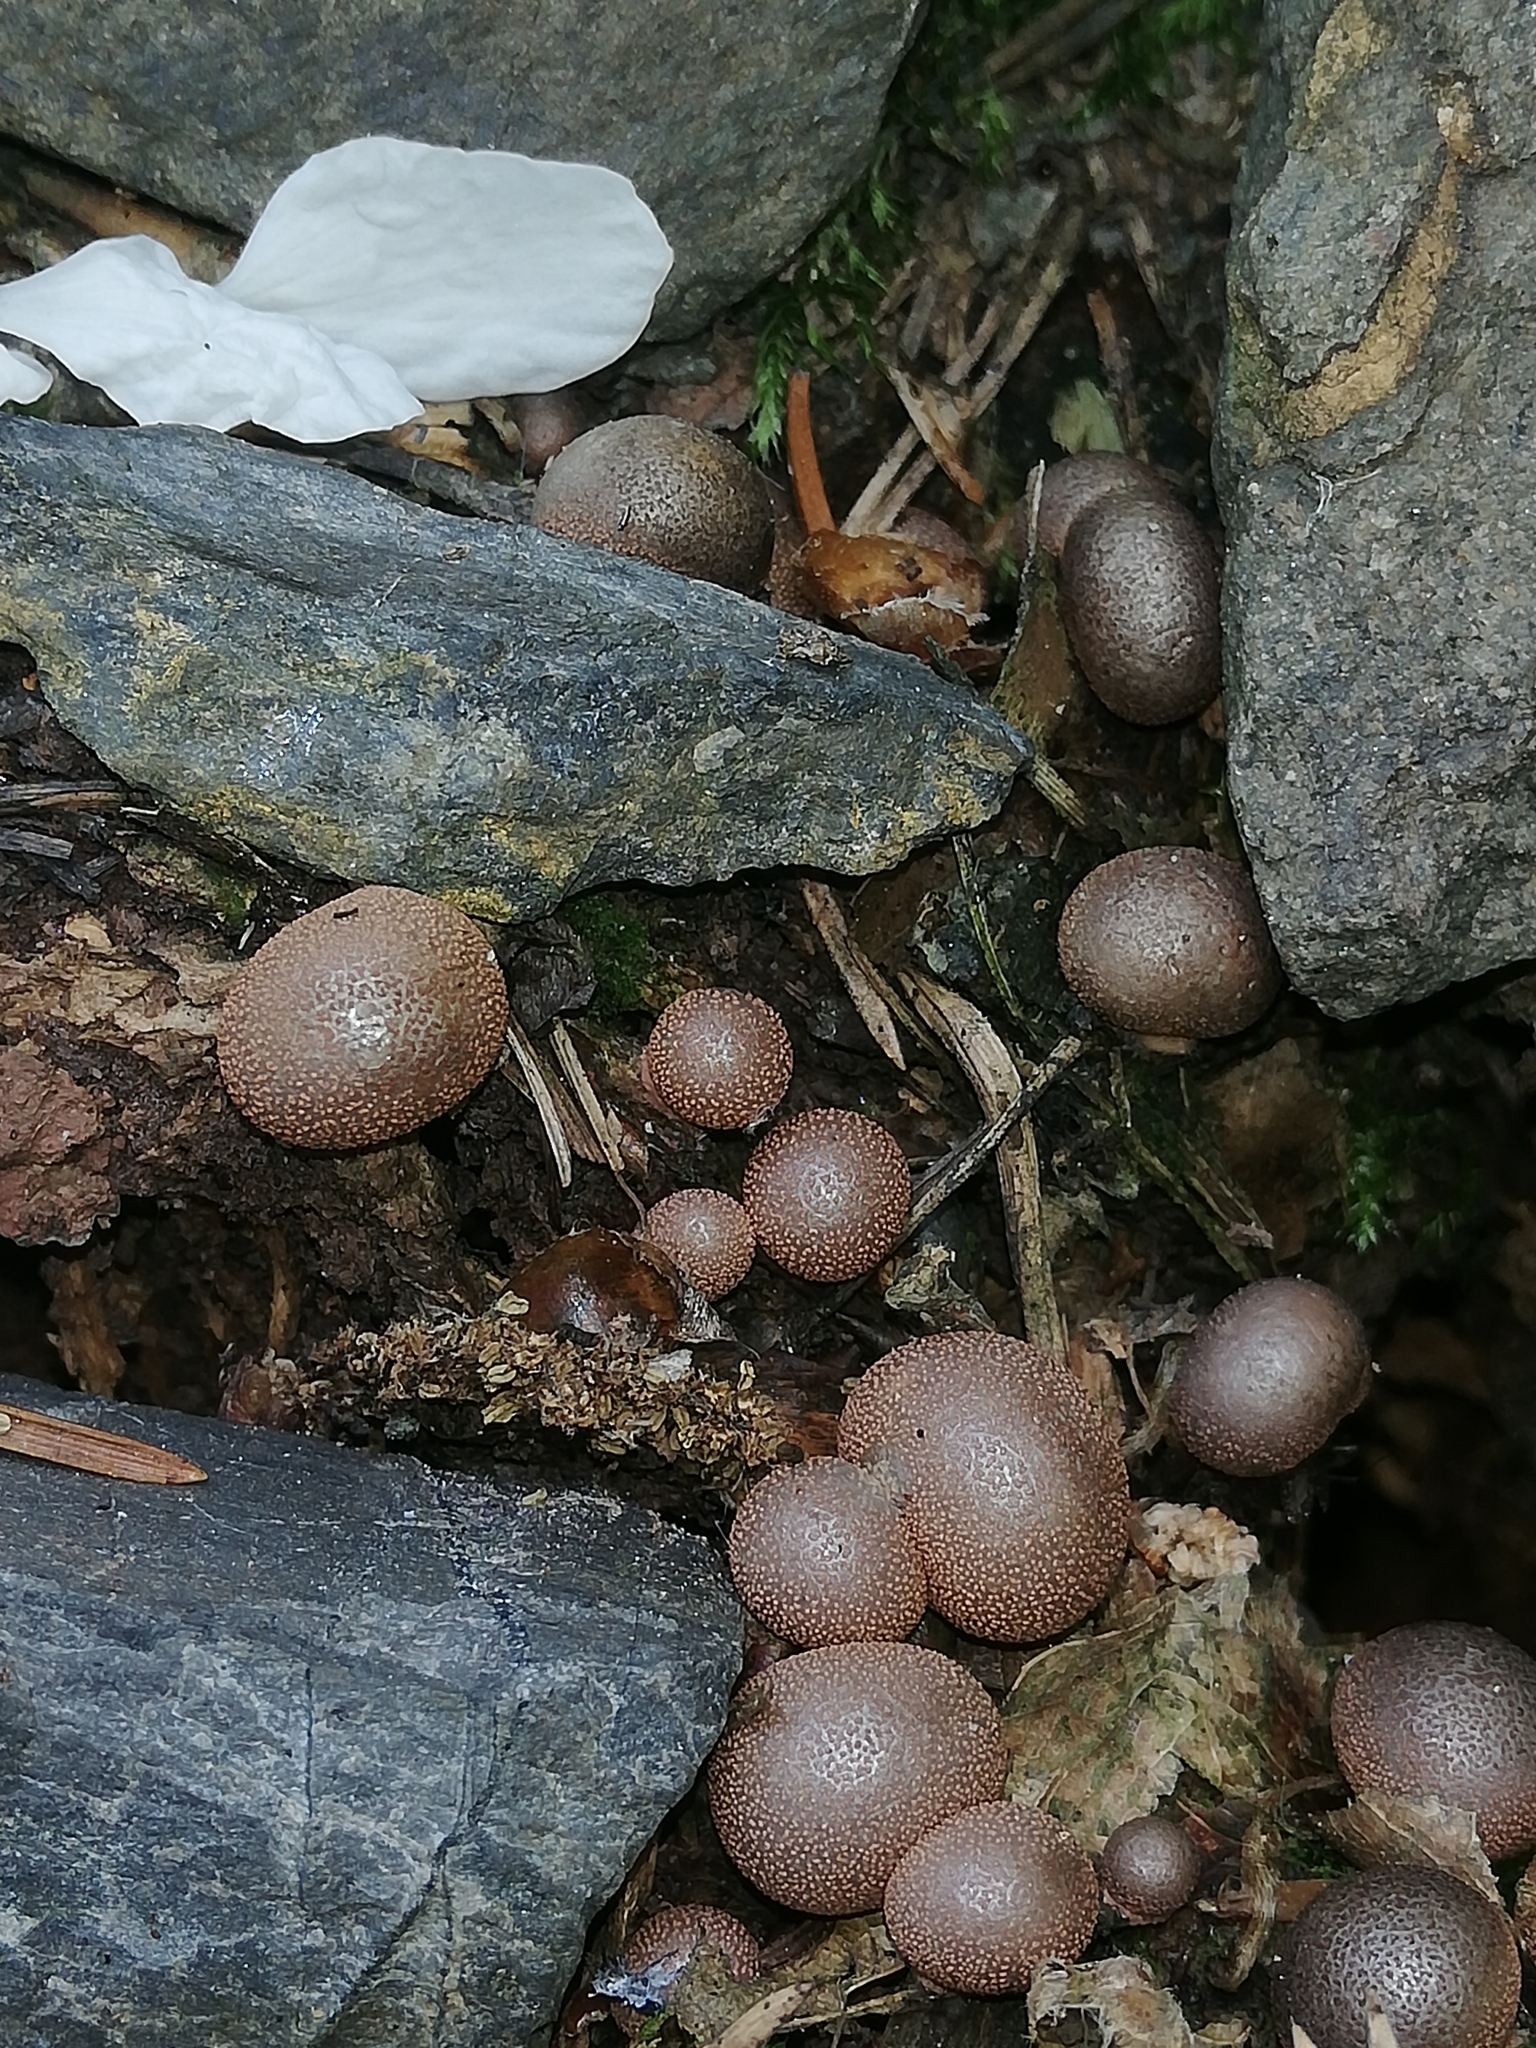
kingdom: Protozoa
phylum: Mycetozoa
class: Myxomycetes
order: Cribrariales
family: Tubiferaceae
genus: Lycogala
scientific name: Lycogala epidendrum
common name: Wolf's milk
